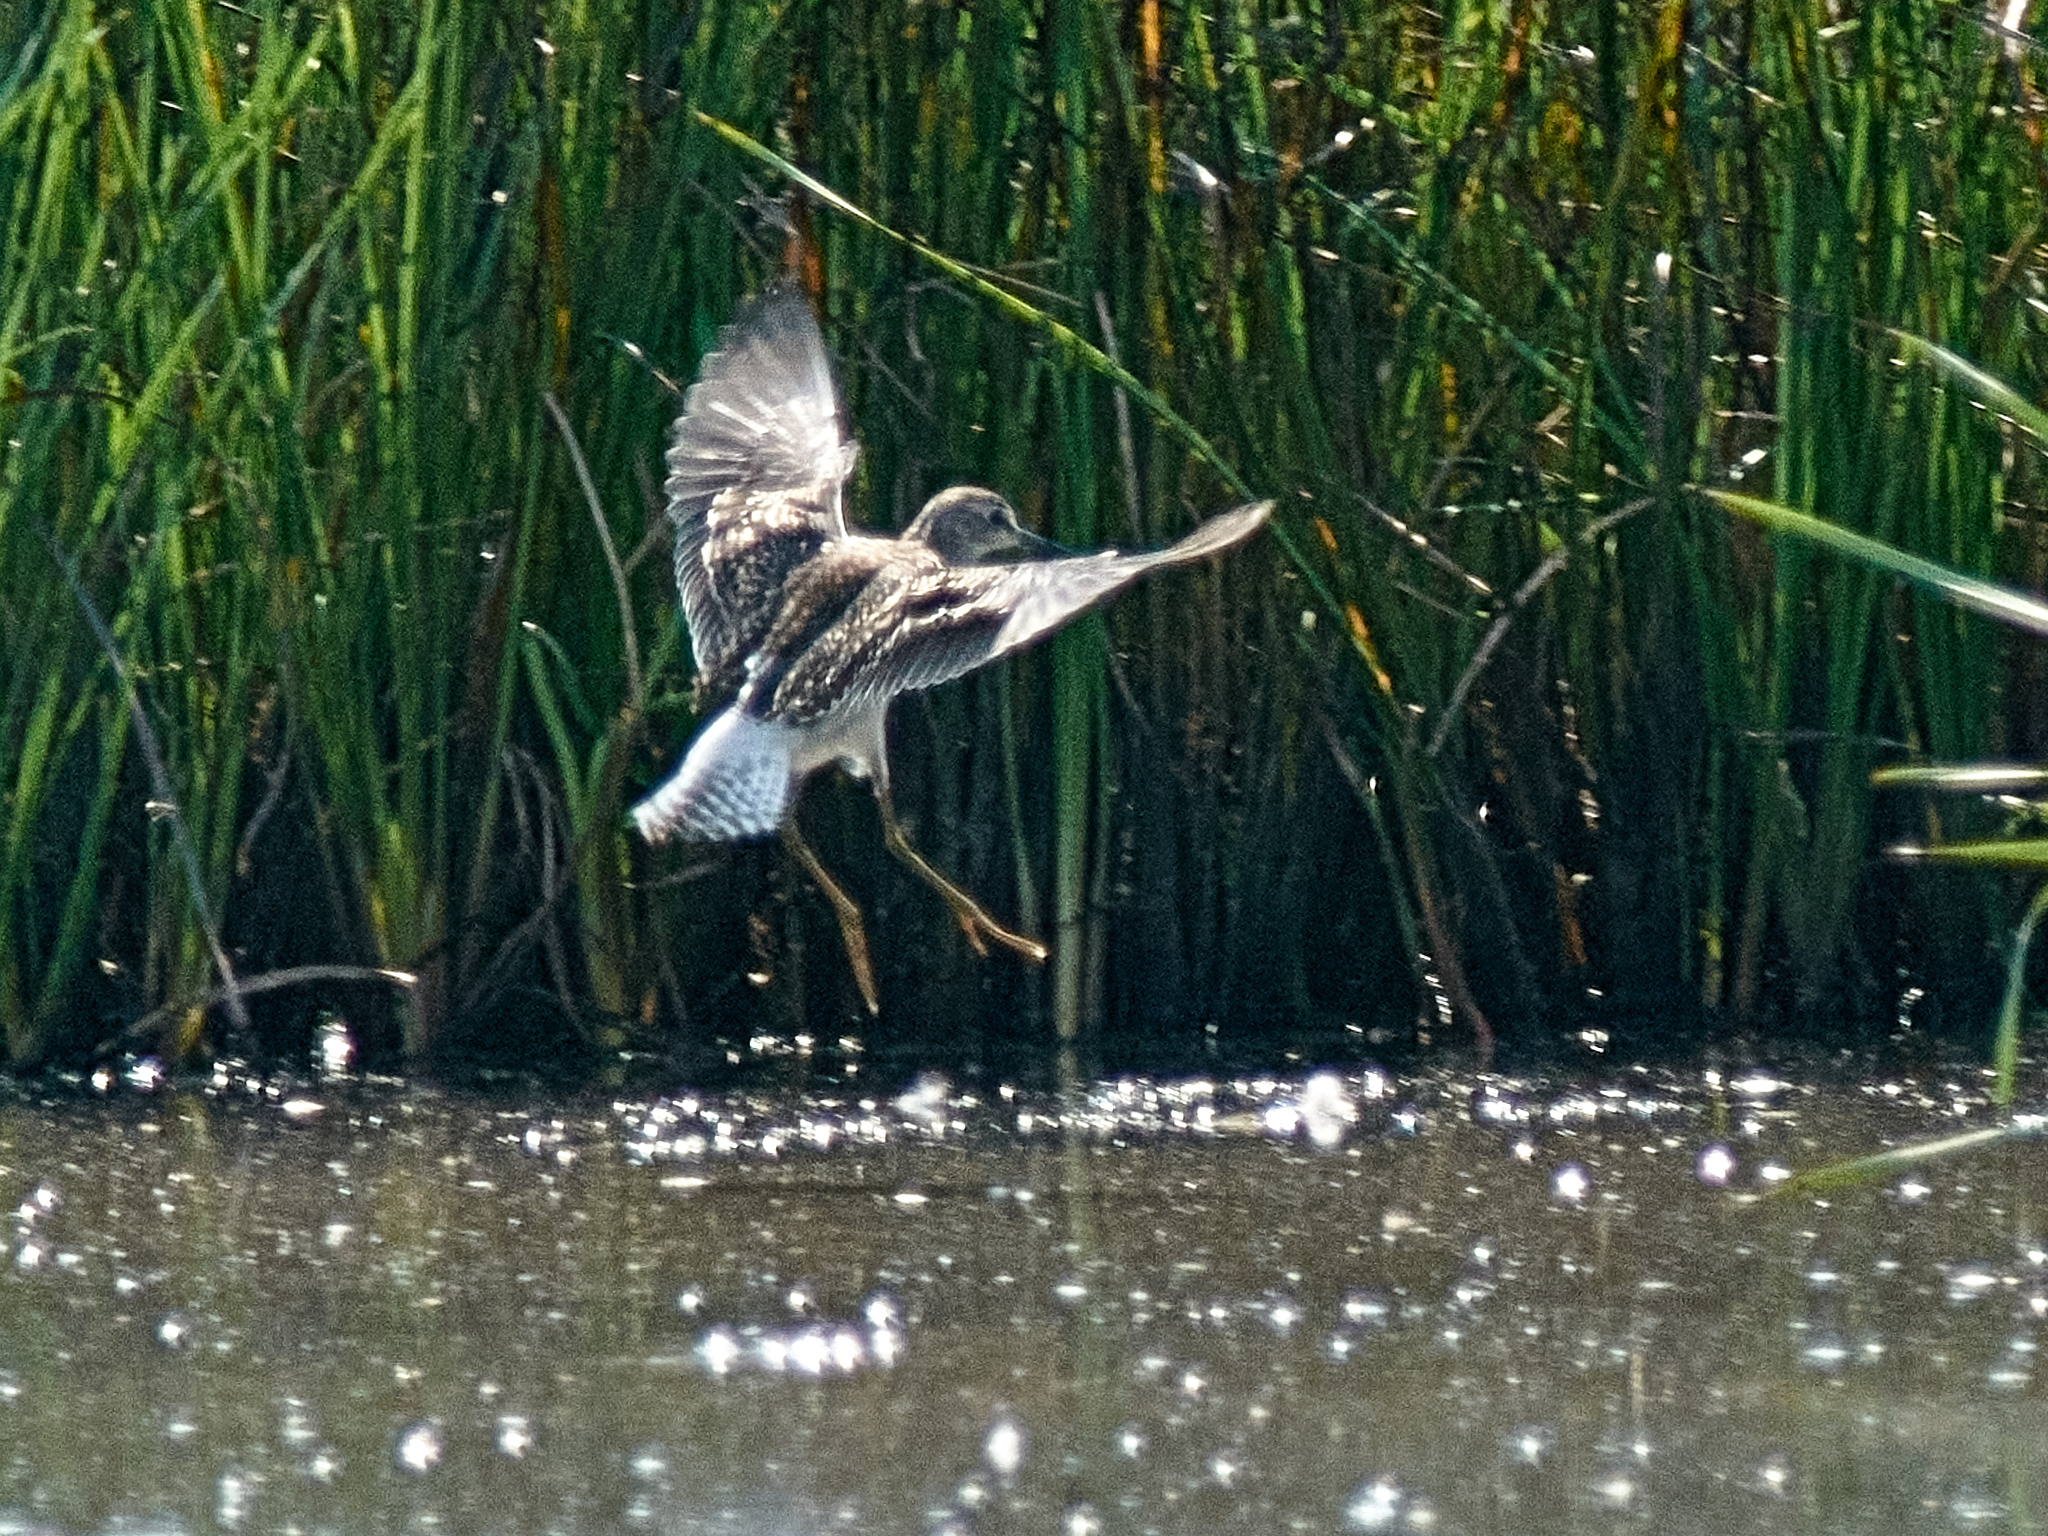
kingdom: Animalia
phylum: Chordata
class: Aves
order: Charadriiformes
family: Scolopacidae
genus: Tringa
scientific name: Tringa glareola
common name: Wood sandpiper
